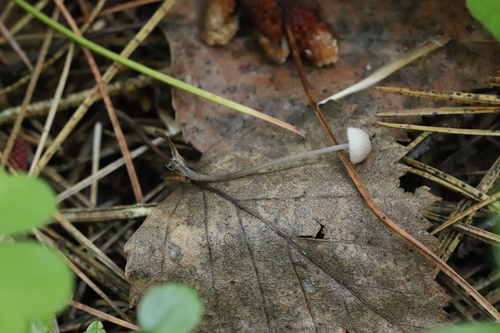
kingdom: Fungi
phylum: Basidiomycota
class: Agaricomycetes
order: Agaricales
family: Mycenaceae
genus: Mycena
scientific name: Mycena
